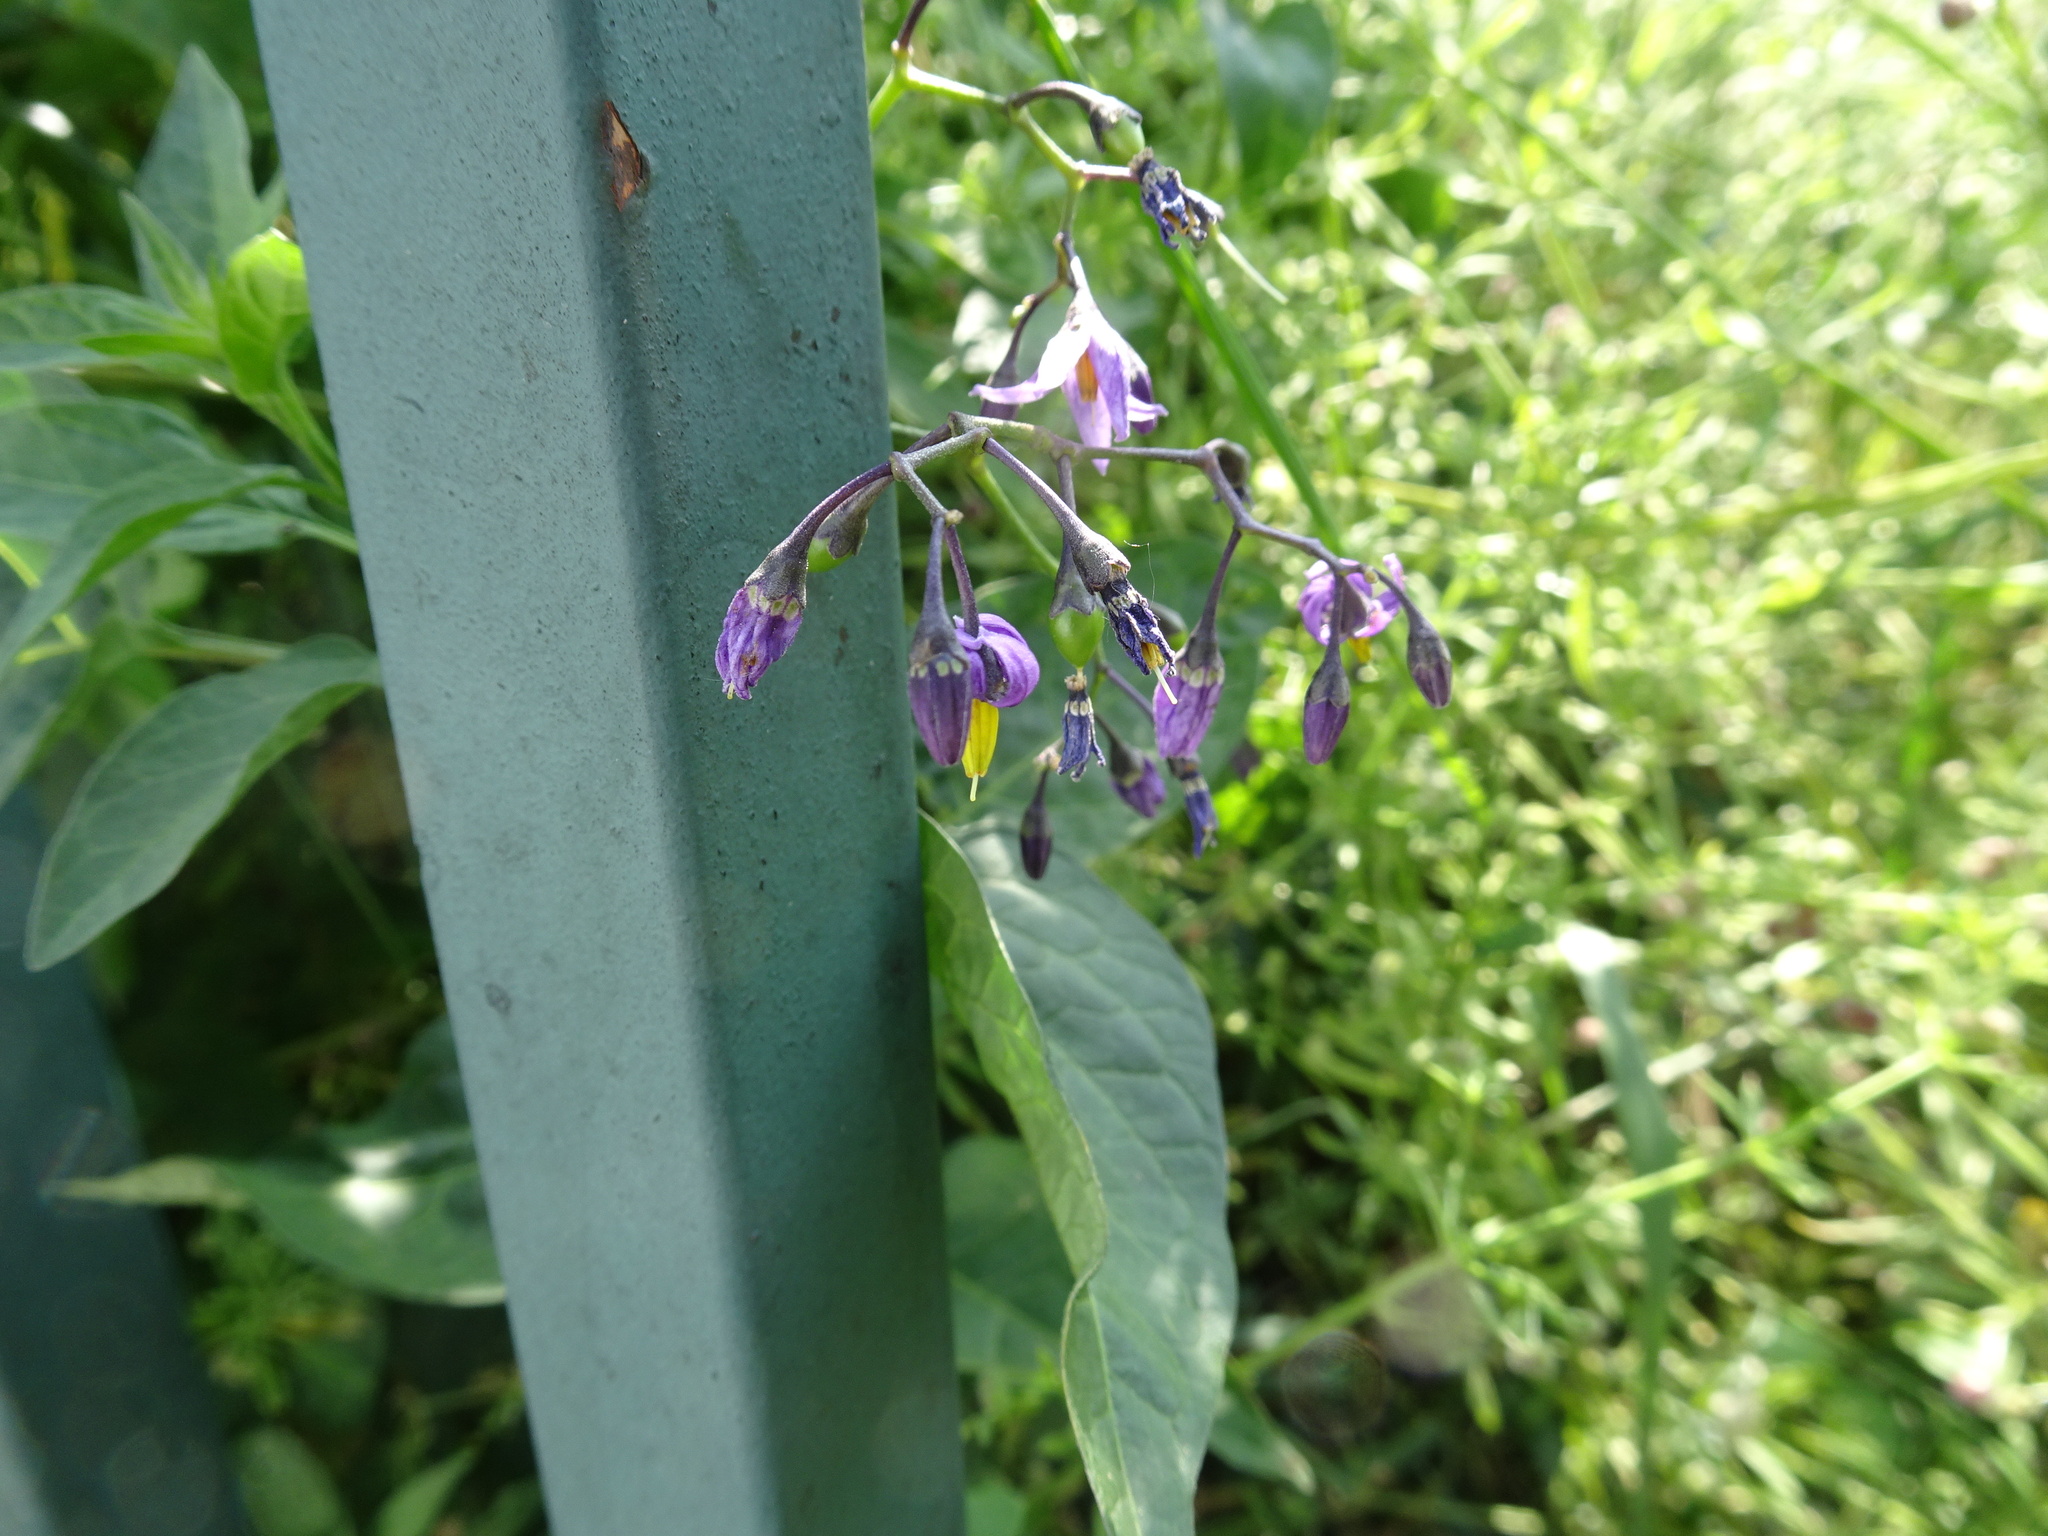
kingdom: Plantae
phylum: Tracheophyta
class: Magnoliopsida
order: Solanales
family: Solanaceae
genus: Solanum
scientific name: Solanum dulcamara
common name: Climbing nightshade
